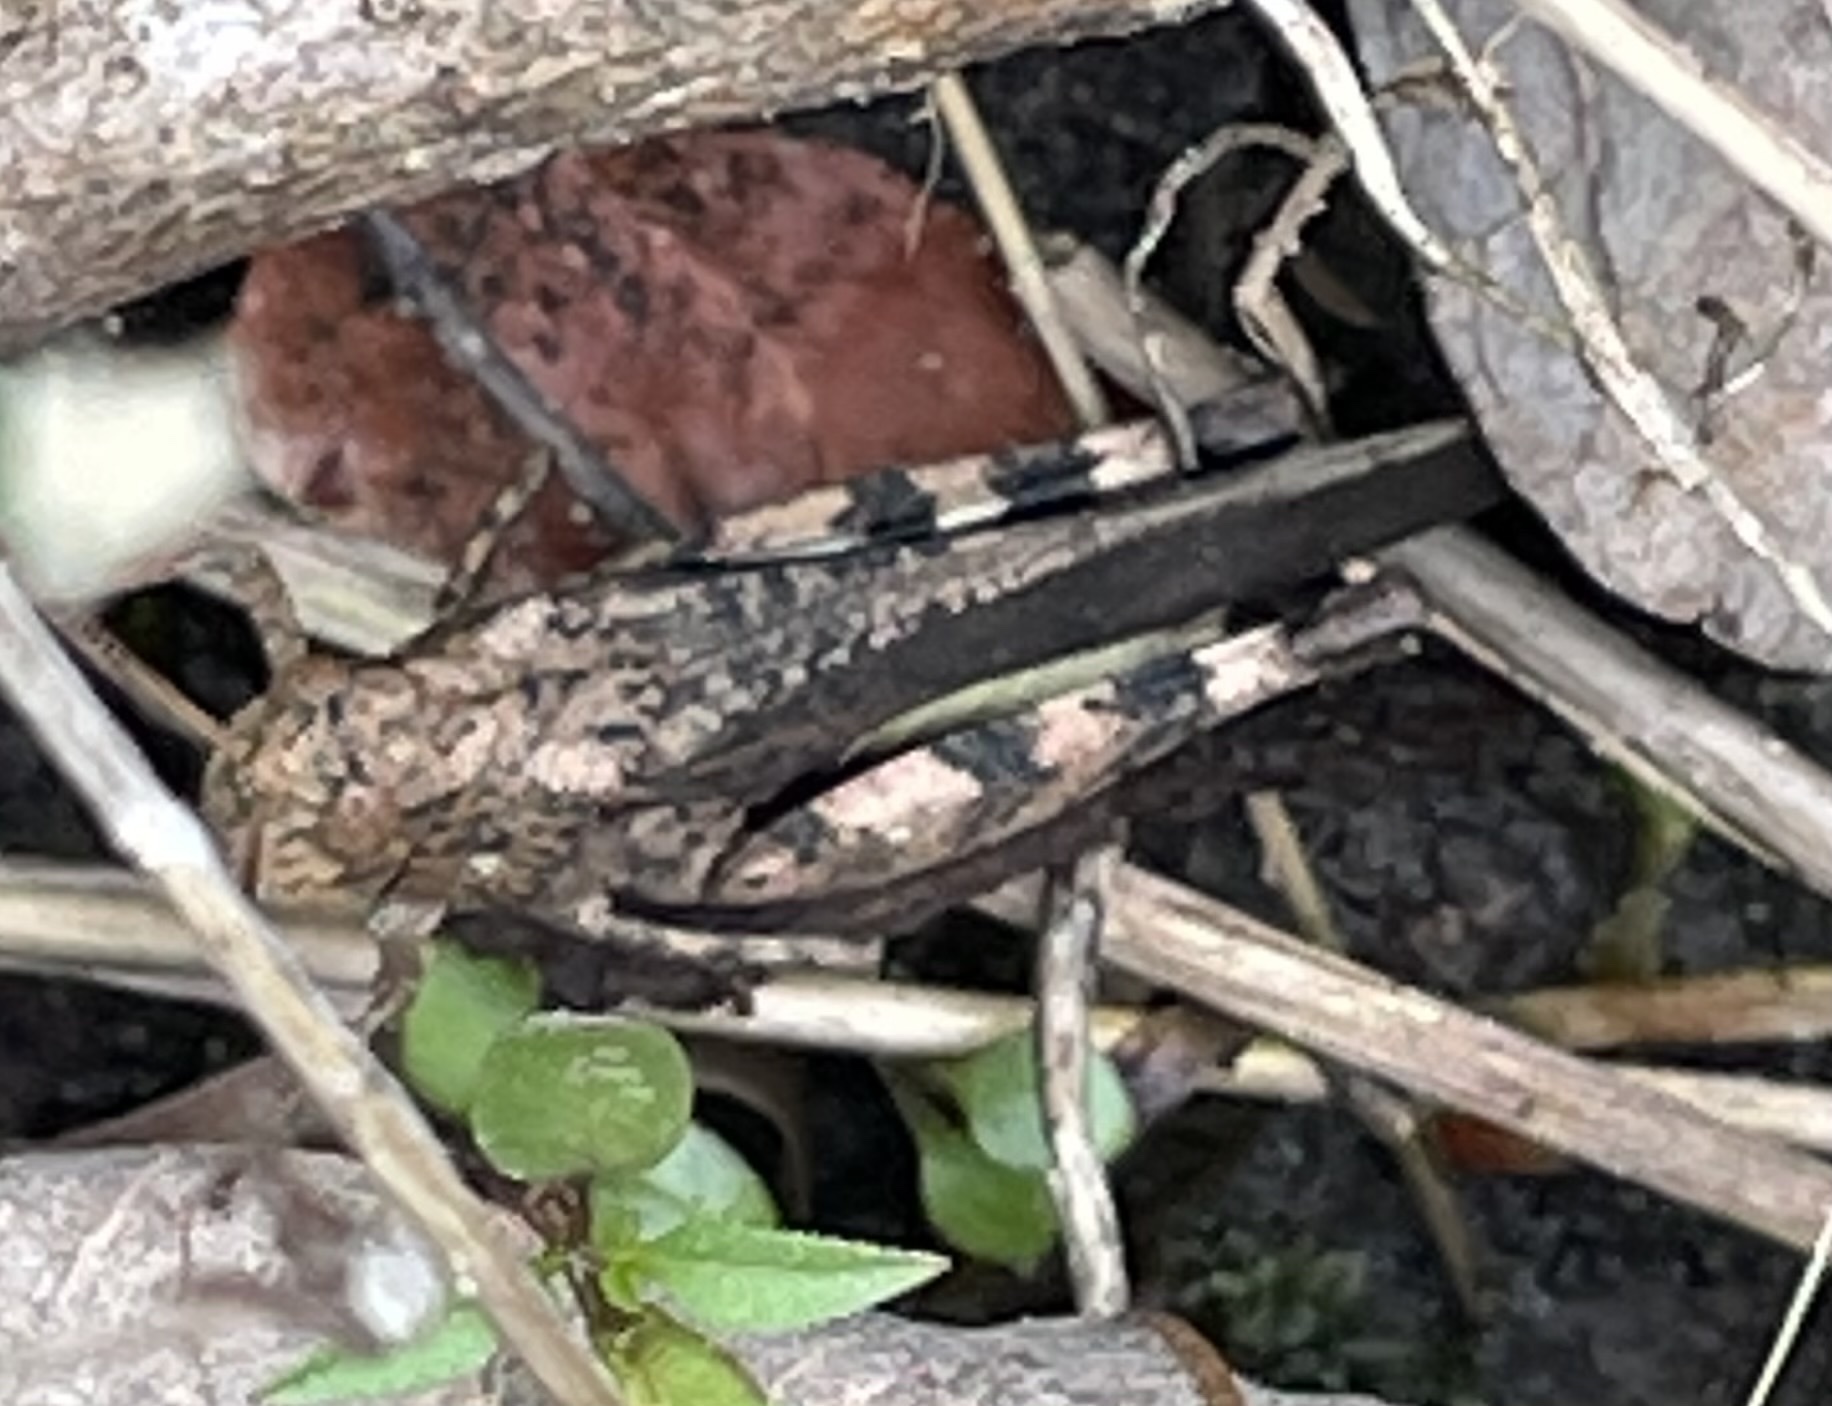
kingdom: Animalia
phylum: Arthropoda
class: Insecta
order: Orthoptera
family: Acrididae
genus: Arphia
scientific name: Arphia sulphurea
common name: Spring yellow-winged locust
